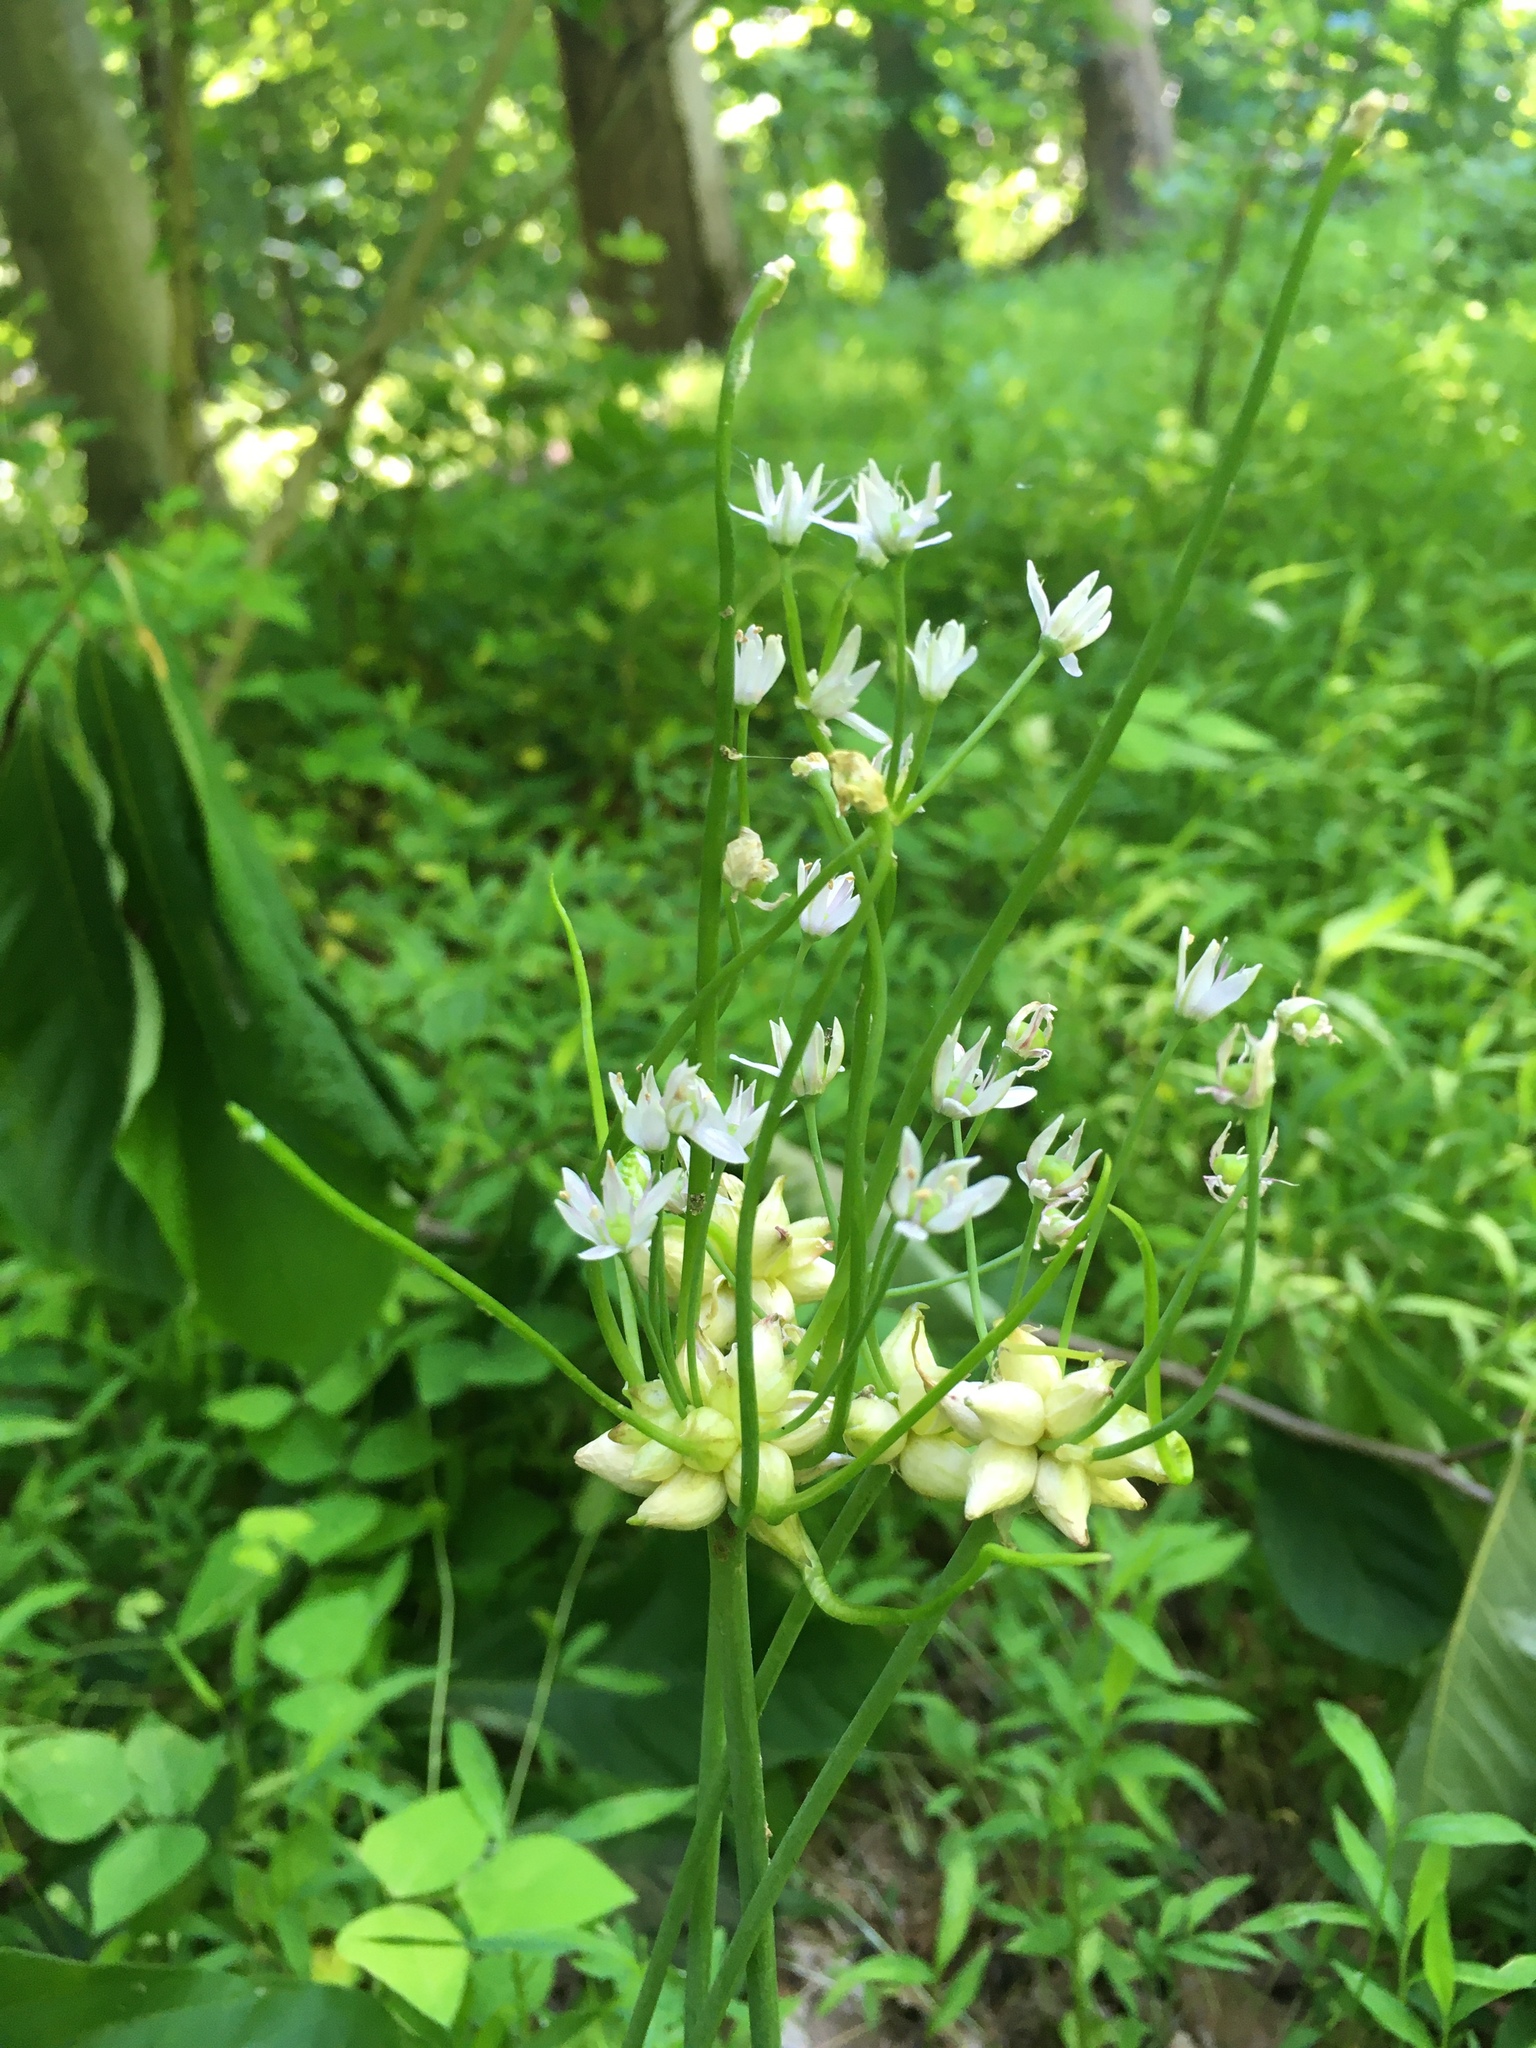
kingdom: Plantae
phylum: Tracheophyta
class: Liliopsida
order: Asparagales
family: Amaryllidaceae
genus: Allium
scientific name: Allium canadense
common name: Meadow garlic
